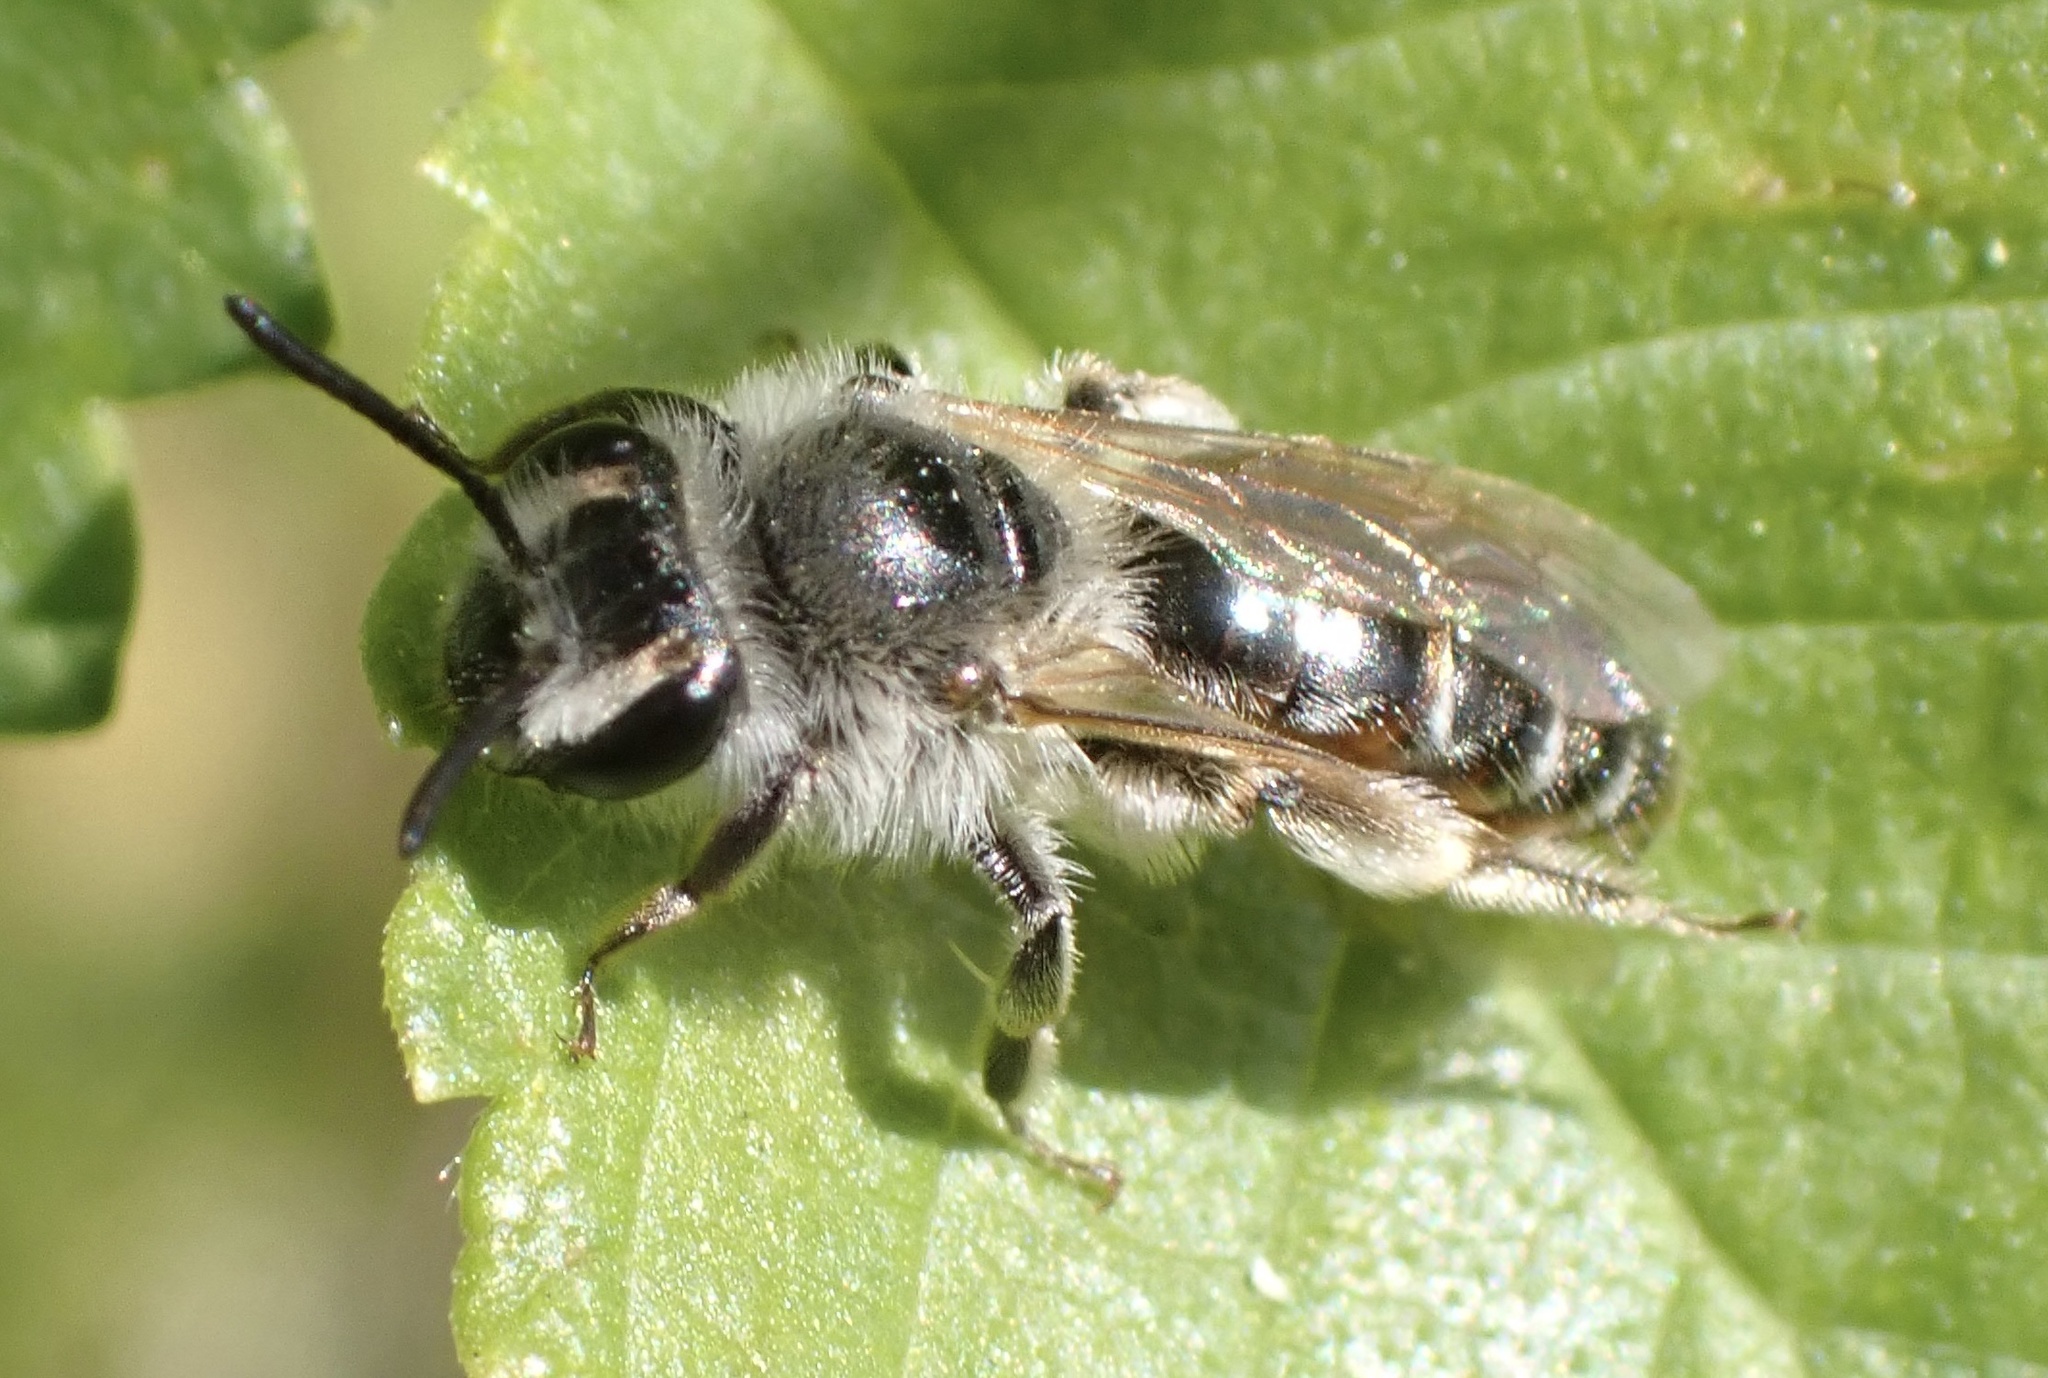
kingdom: Animalia
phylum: Arthropoda
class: Insecta
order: Hymenoptera
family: Andrenidae
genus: Andrena
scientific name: Andrena ventralis
